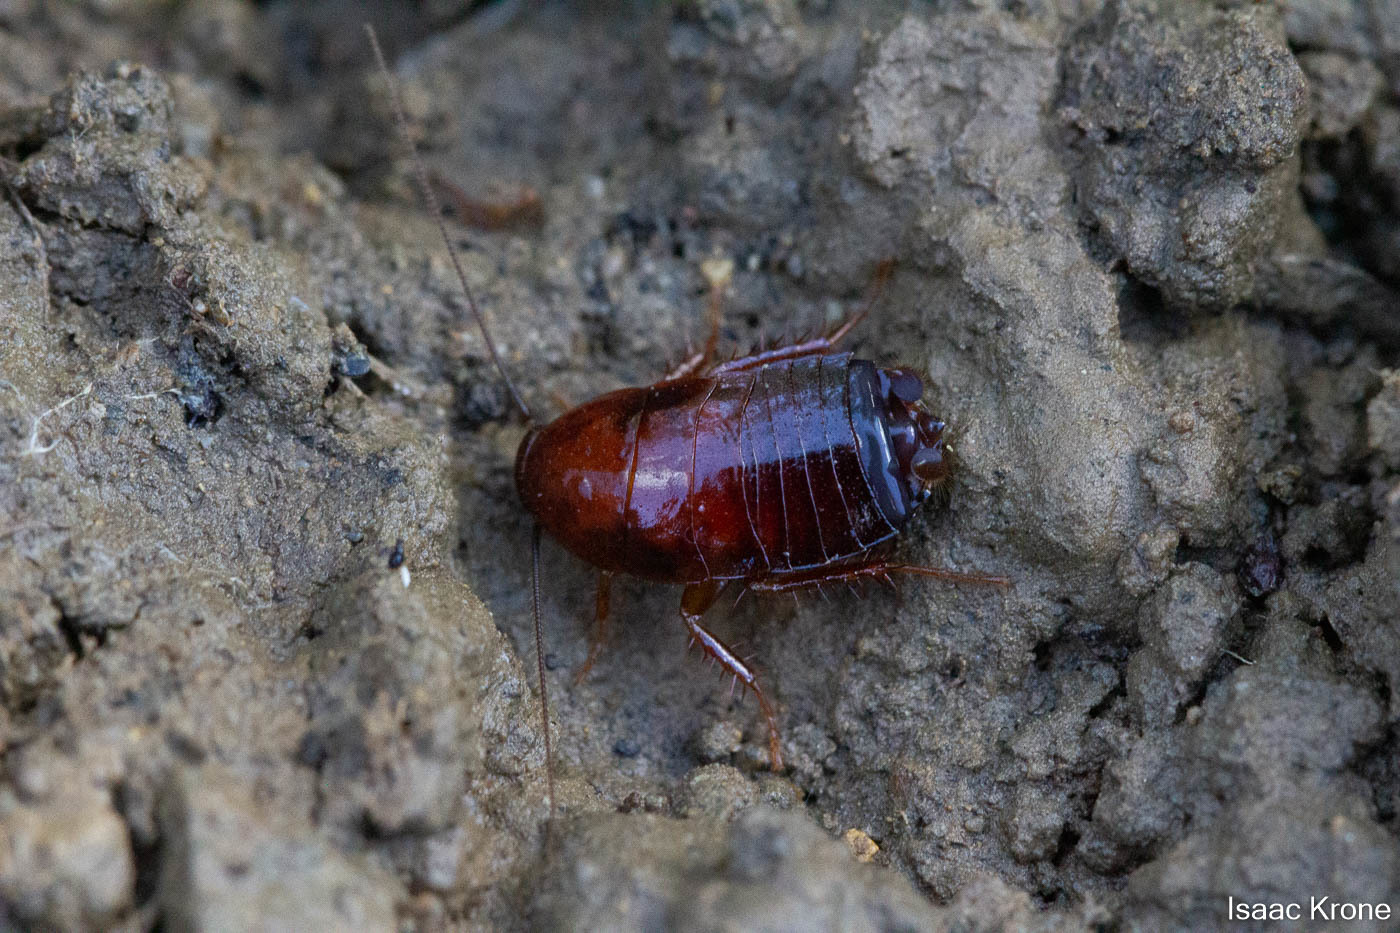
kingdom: Animalia
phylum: Arthropoda
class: Insecta
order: Blattodea
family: Ectobiidae
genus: Parcoblatta
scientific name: Parcoblatta americana
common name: Western wood cockroach
